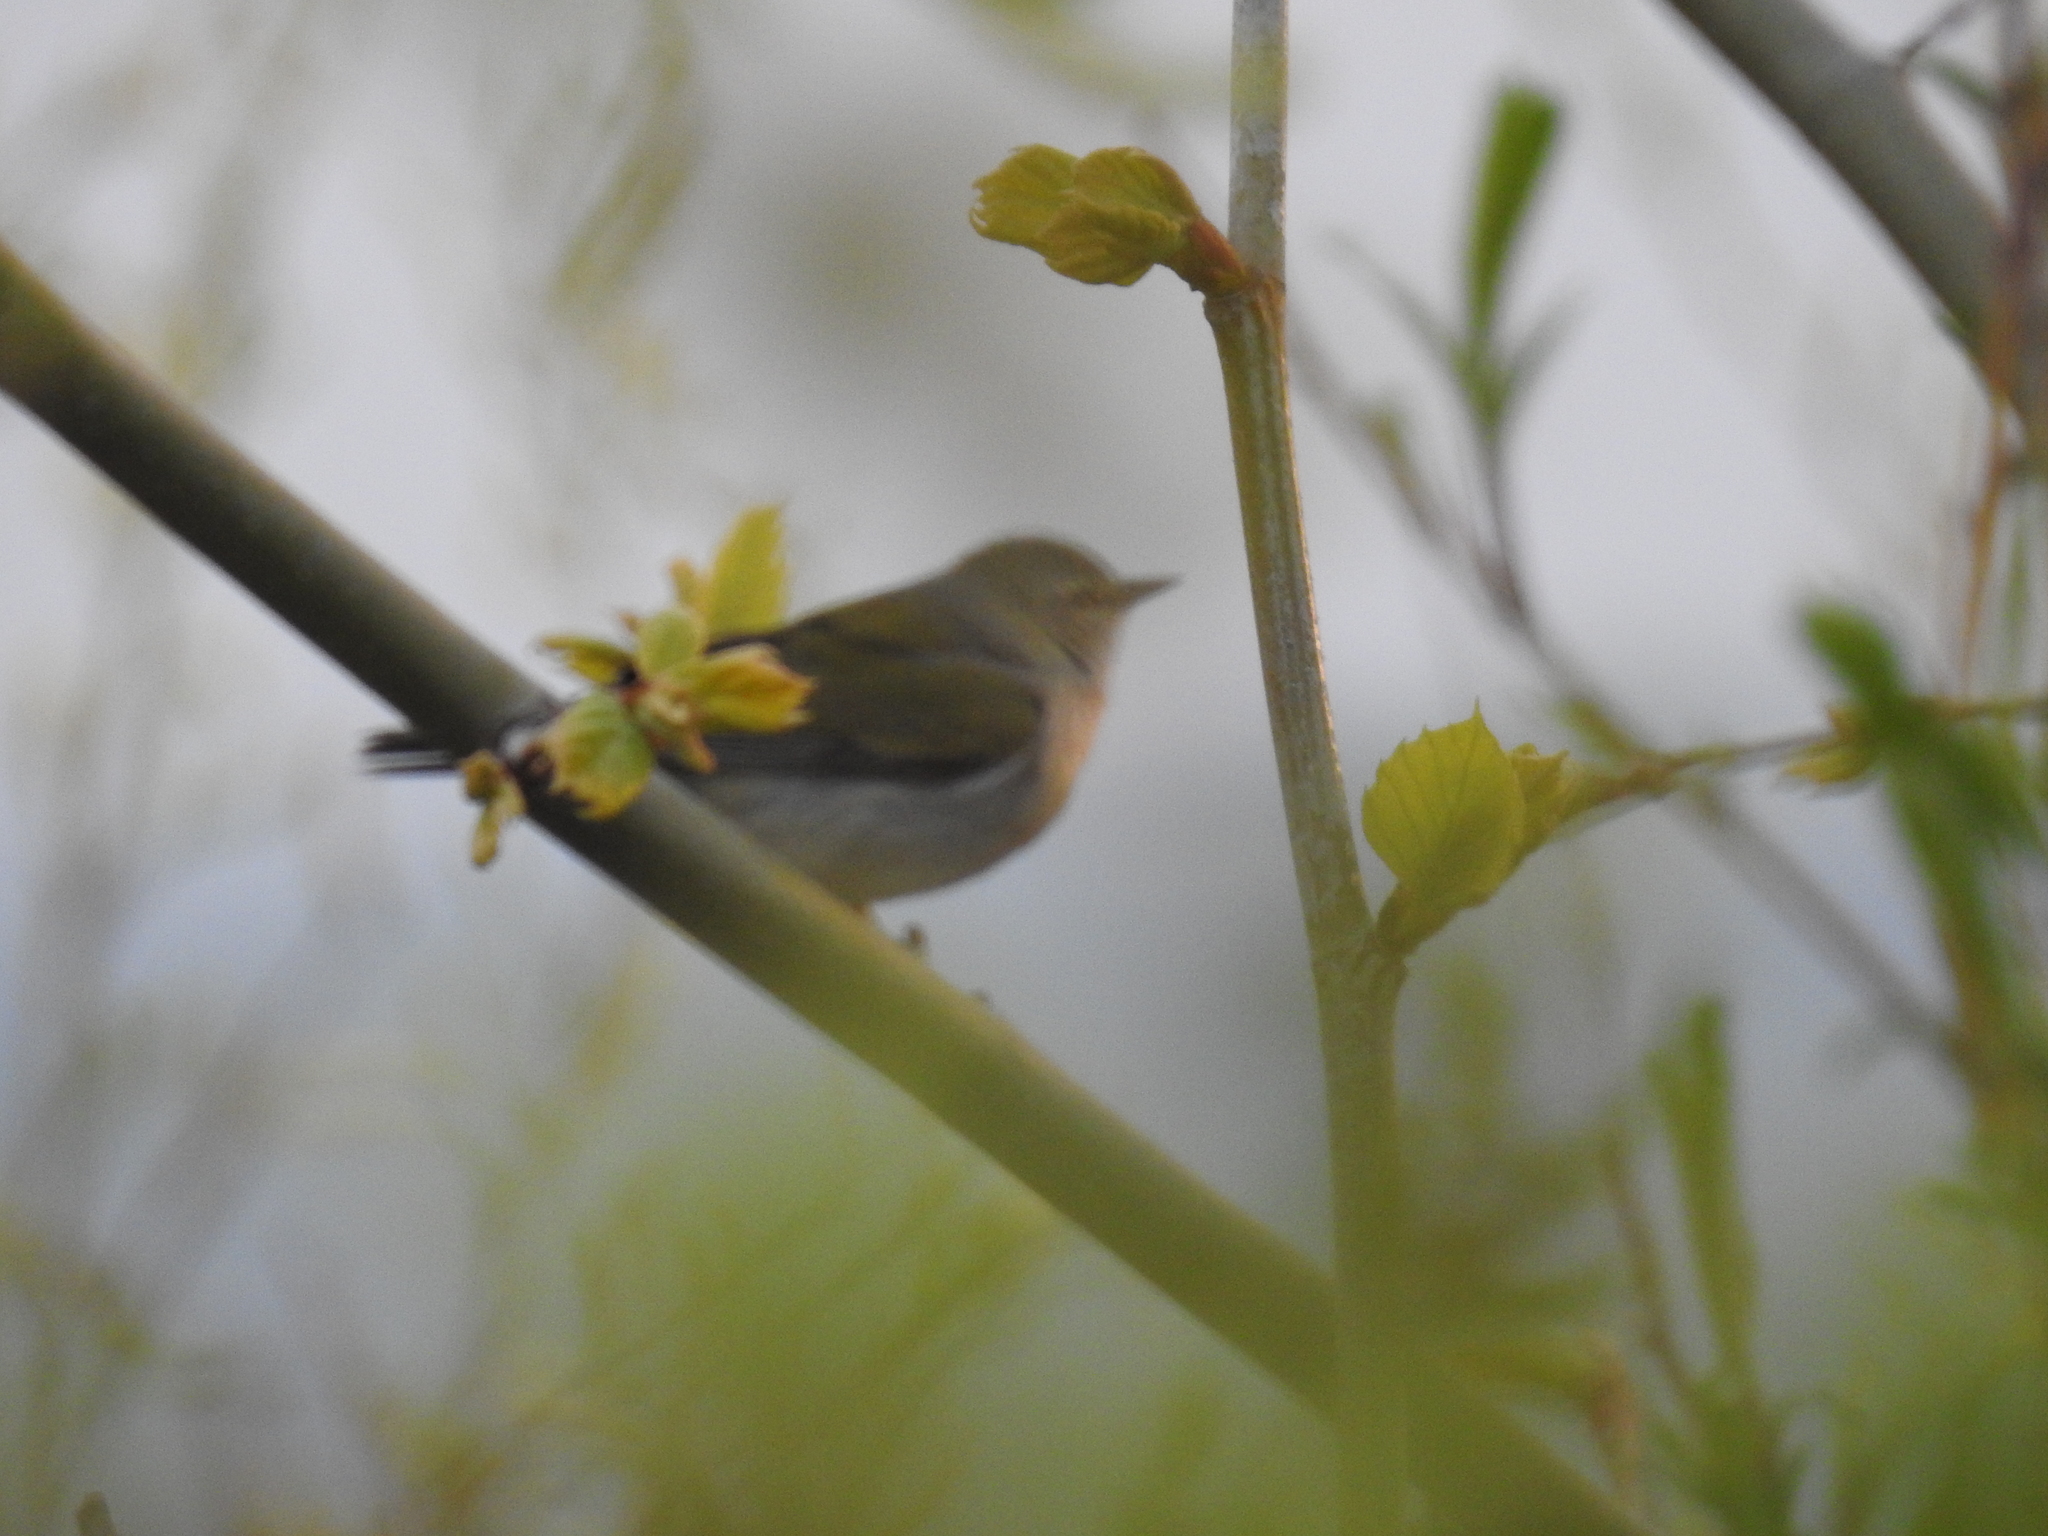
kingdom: Animalia
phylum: Chordata
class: Aves
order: Passeriformes
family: Parulidae
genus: Leiothlypis
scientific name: Leiothlypis peregrina
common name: Tennessee warbler
